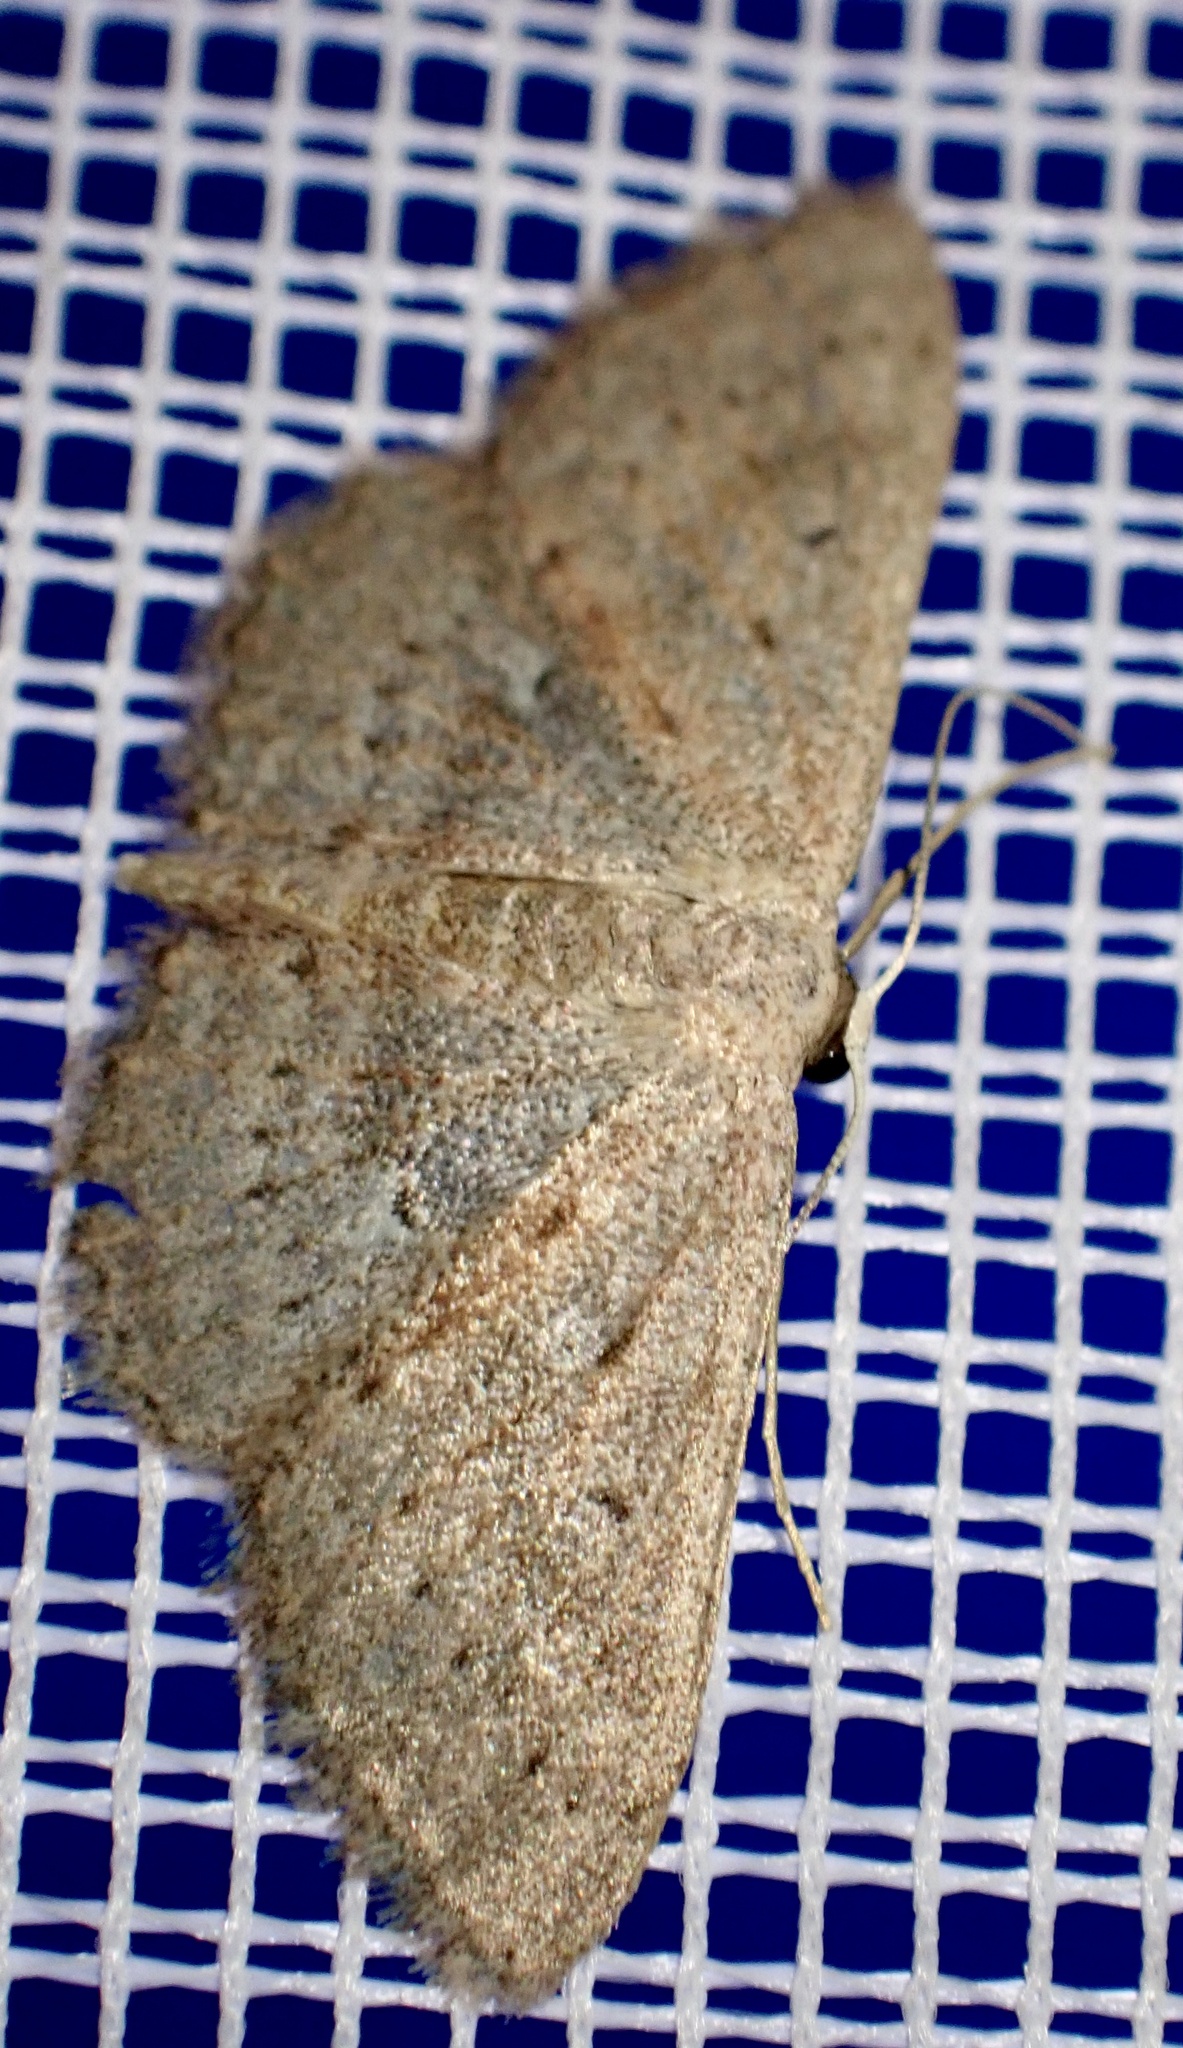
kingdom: Animalia
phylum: Arthropoda
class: Insecta
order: Lepidoptera
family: Geometridae
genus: Scopula
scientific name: Scopula guancharia
